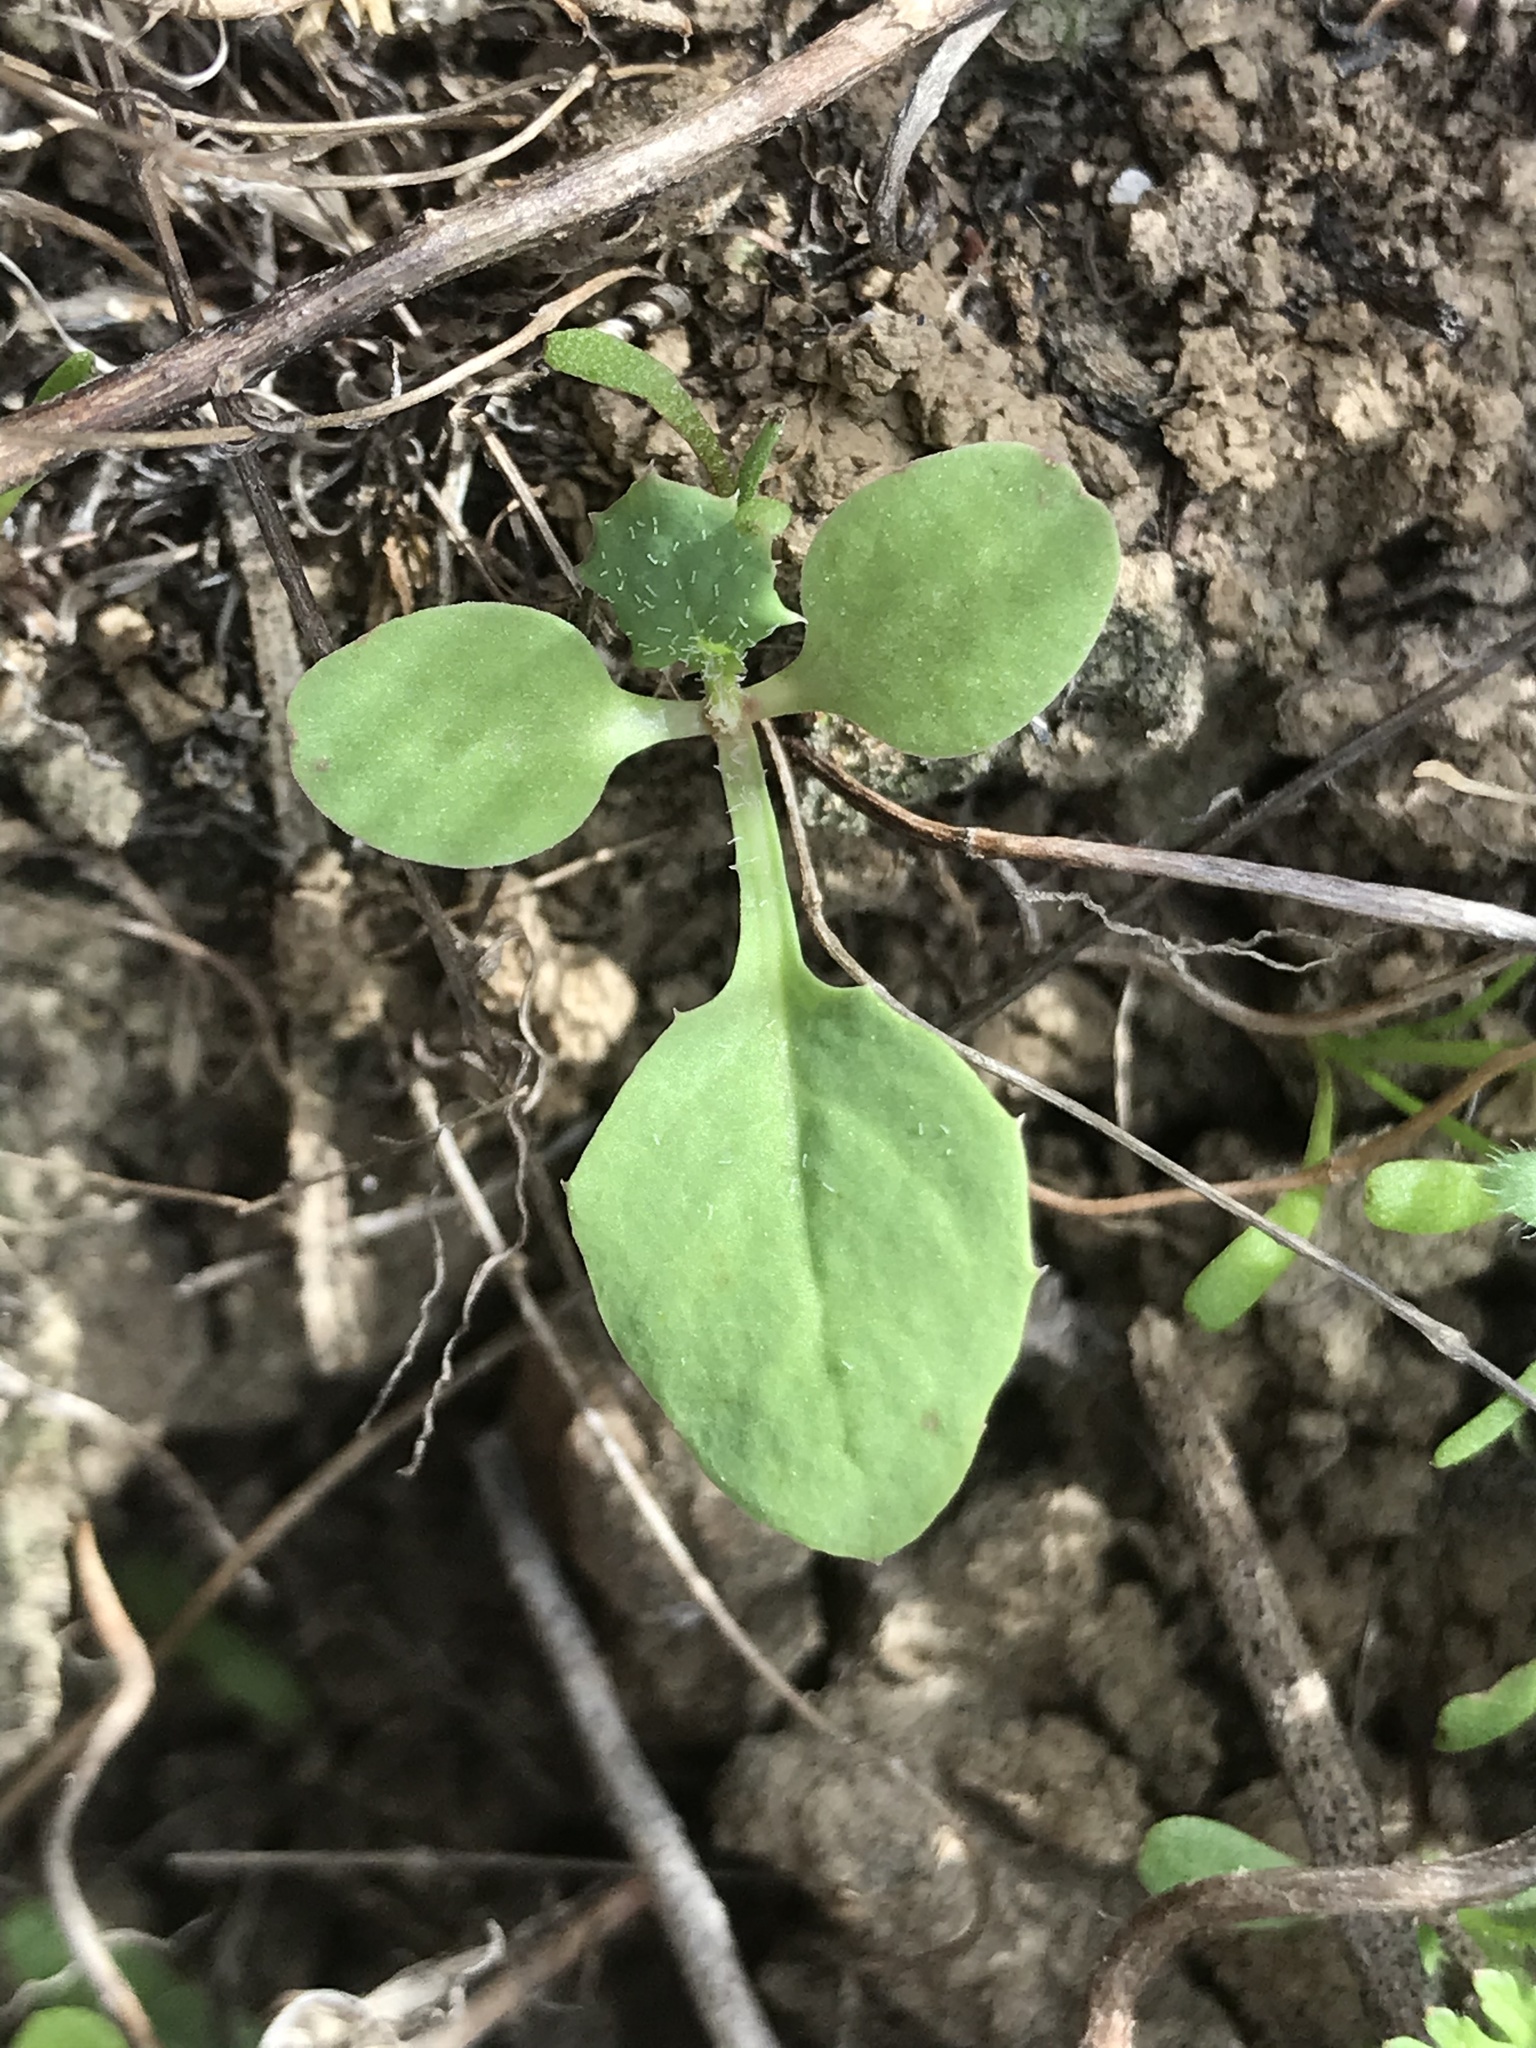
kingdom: Plantae
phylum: Tracheophyta
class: Magnoliopsida
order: Asterales
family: Asteraceae
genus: Sonchus
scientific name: Sonchus oleraceus
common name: Common sowthistle
